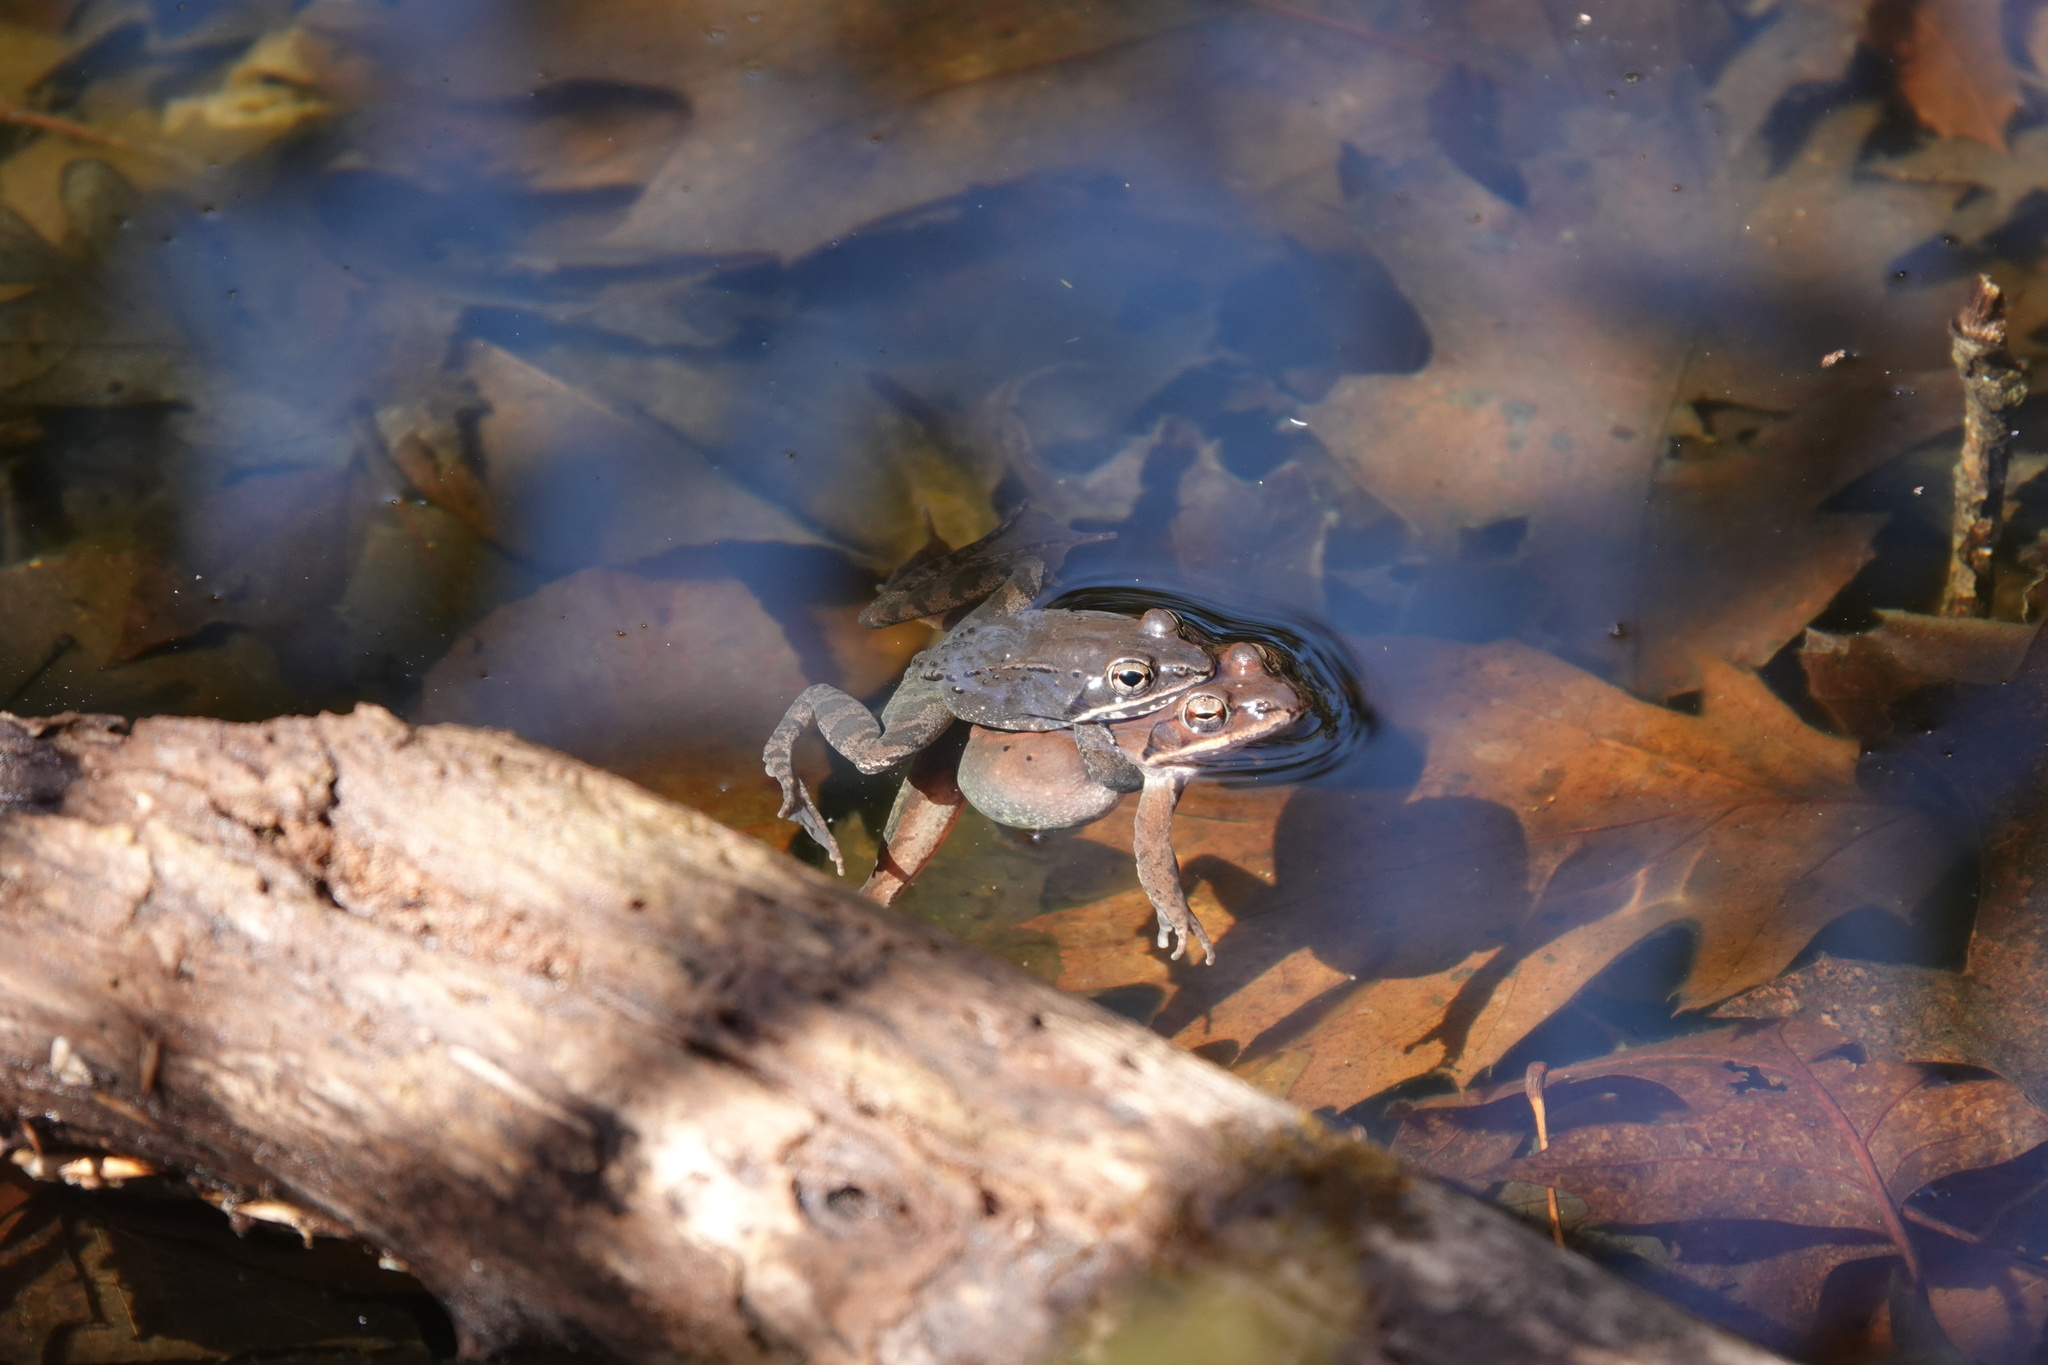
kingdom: Animalia
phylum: Chordata
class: Amphibia
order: Anura
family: Ranidae
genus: Lithobates
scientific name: Lithobates sylvaticus
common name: Wood frog
